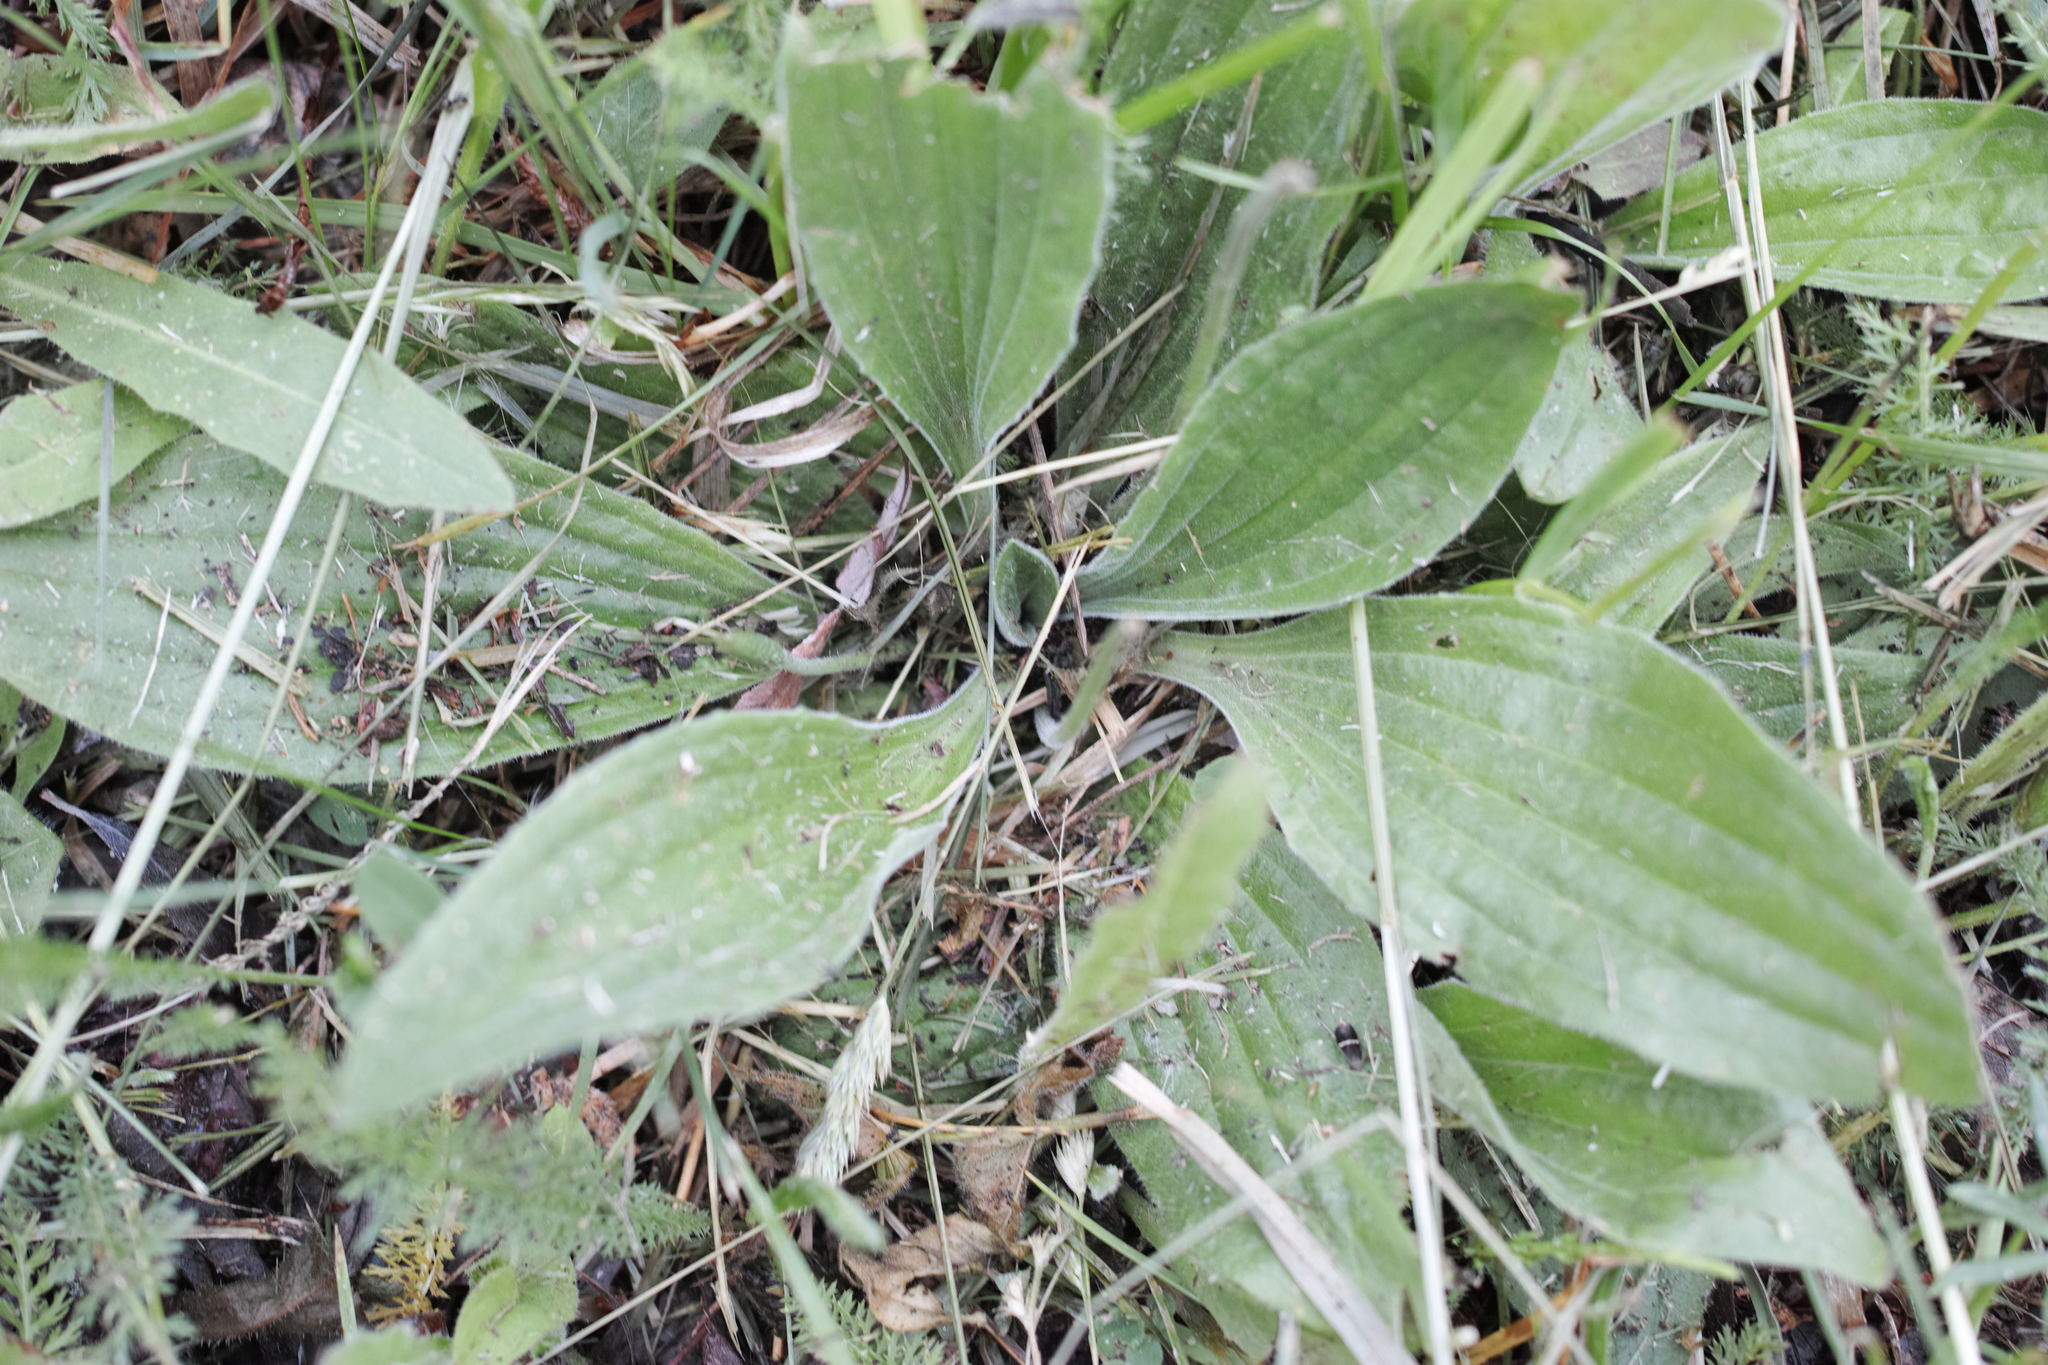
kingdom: Plantae
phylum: Tracheophyta
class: Magnoliopsida
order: Lamiales
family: Plantaginaceae
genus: Plantago
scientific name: Plantago urvillei
